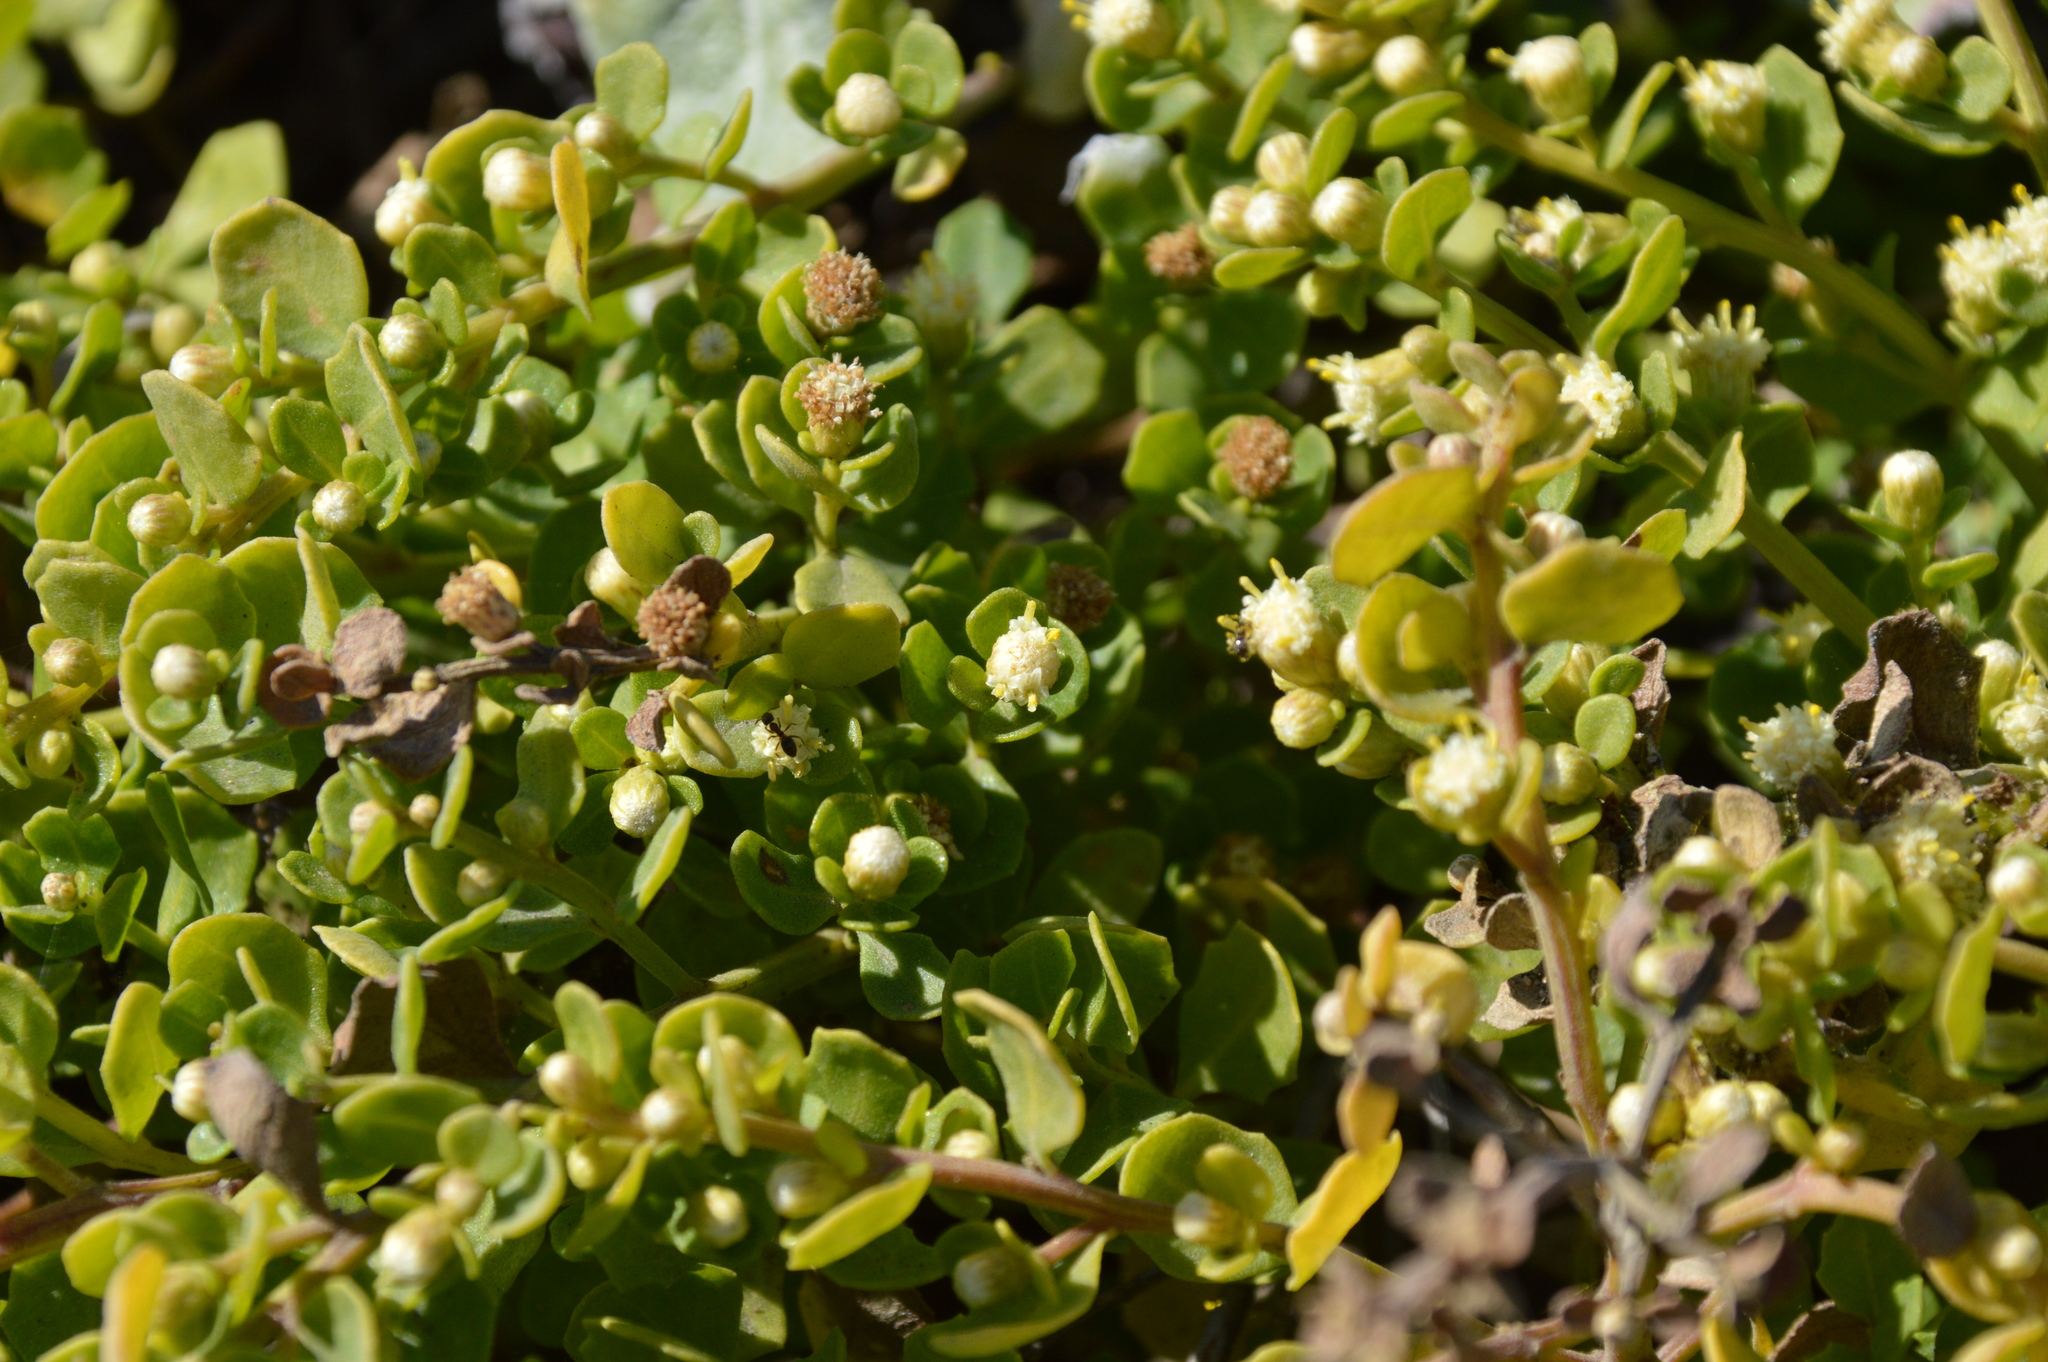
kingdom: Plantae
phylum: Tracheophyta
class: Magnoliopsida
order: Asterales
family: Asteraceae
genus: Baccharis
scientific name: Baccharis pilularis
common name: Coyotebrush
